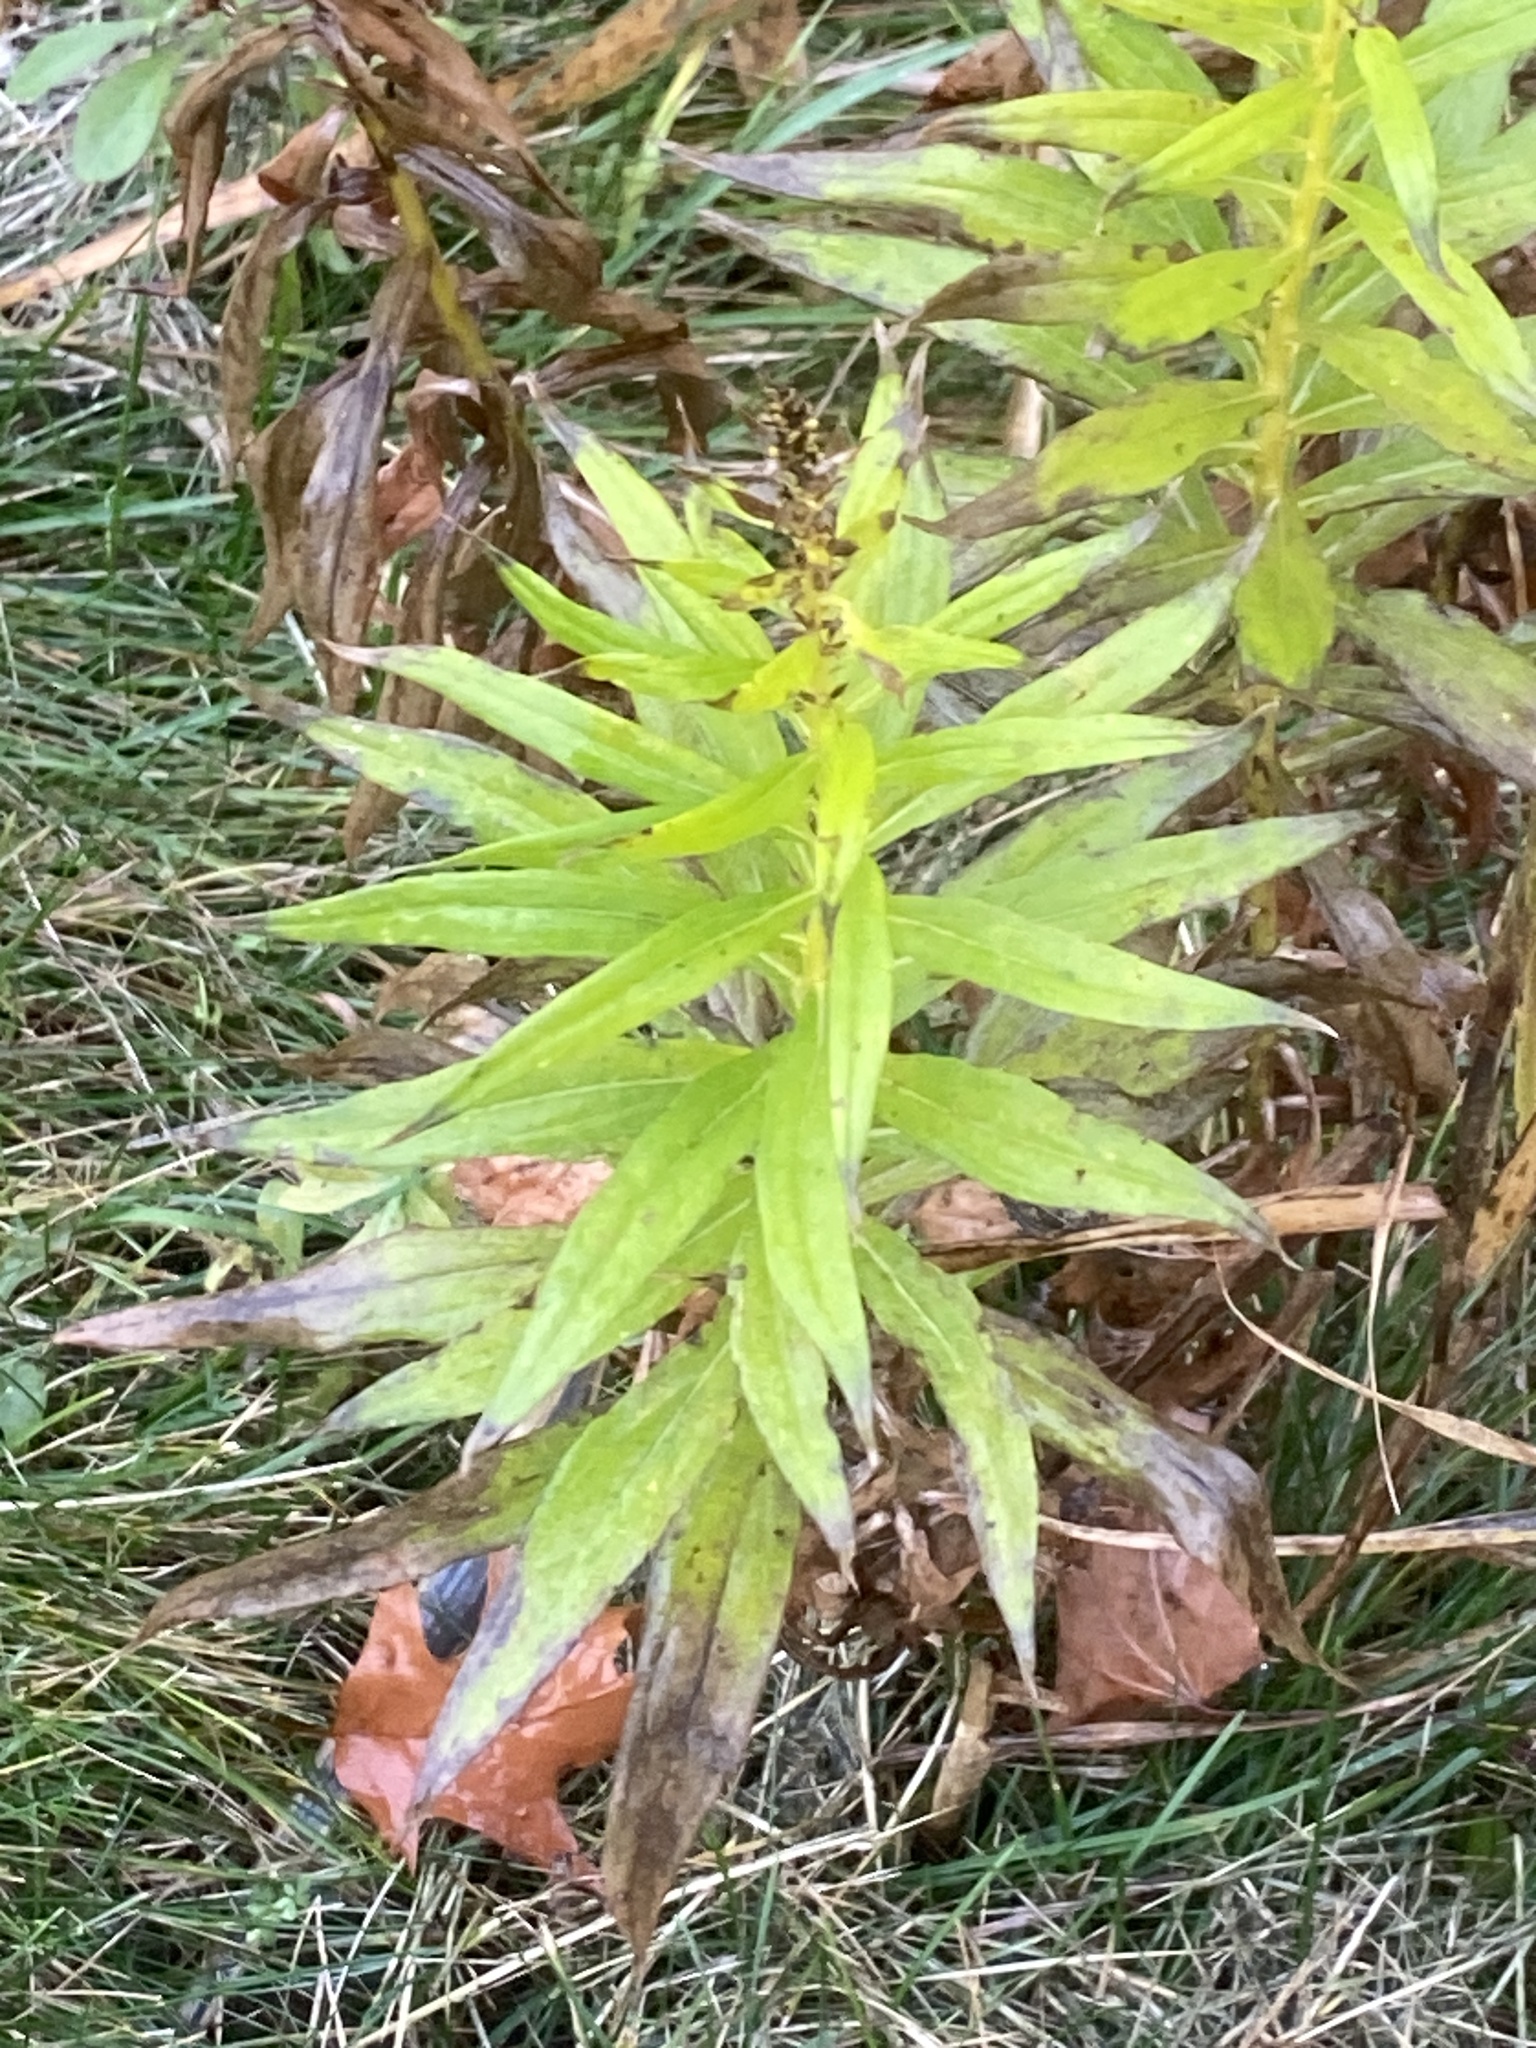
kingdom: Plantae
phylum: Tracheophyta
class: Magnoliopsida
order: Asterales
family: Asteraceae
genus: Solidago
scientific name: Solidago altissima
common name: Late goldenrod
